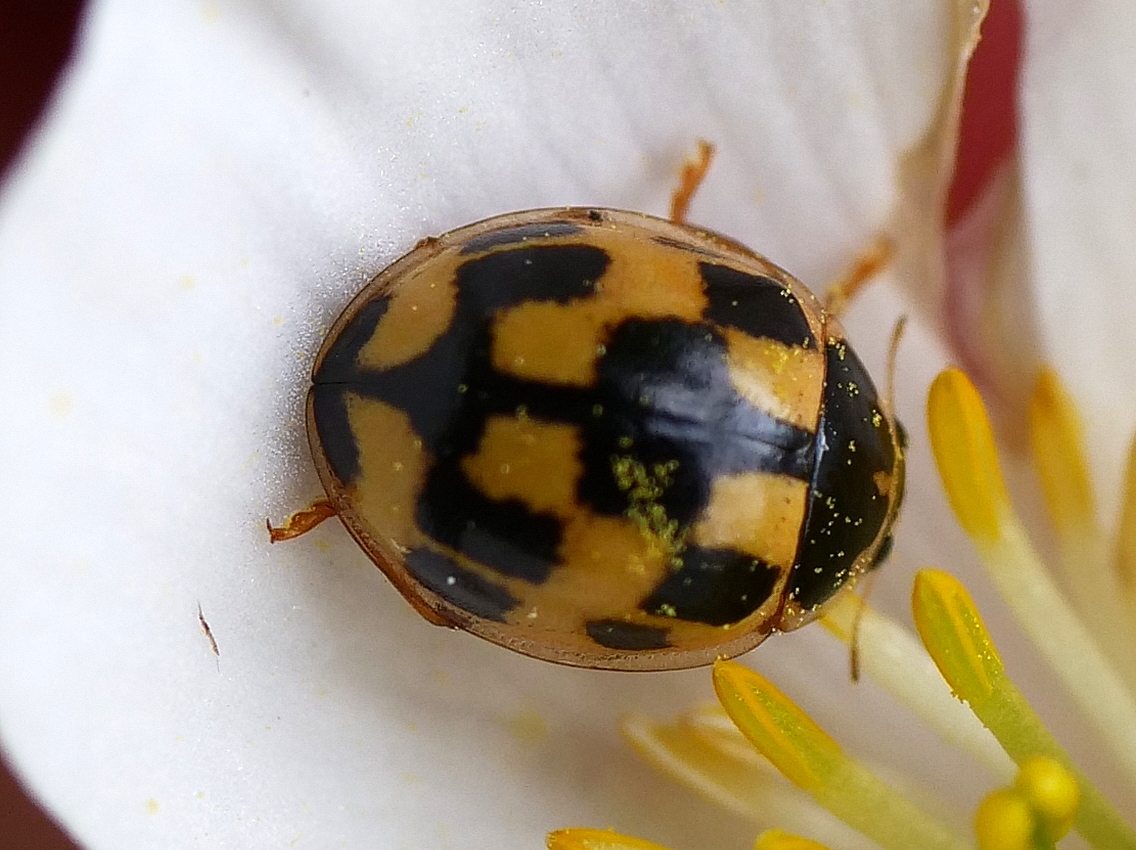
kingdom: Animalia
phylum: Arthropoda
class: Insecta
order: Coleoptera
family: Coccinellidae
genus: Propylaea
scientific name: Propylaea quatuordecimpunctata
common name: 14-spotted ladybird beetle
